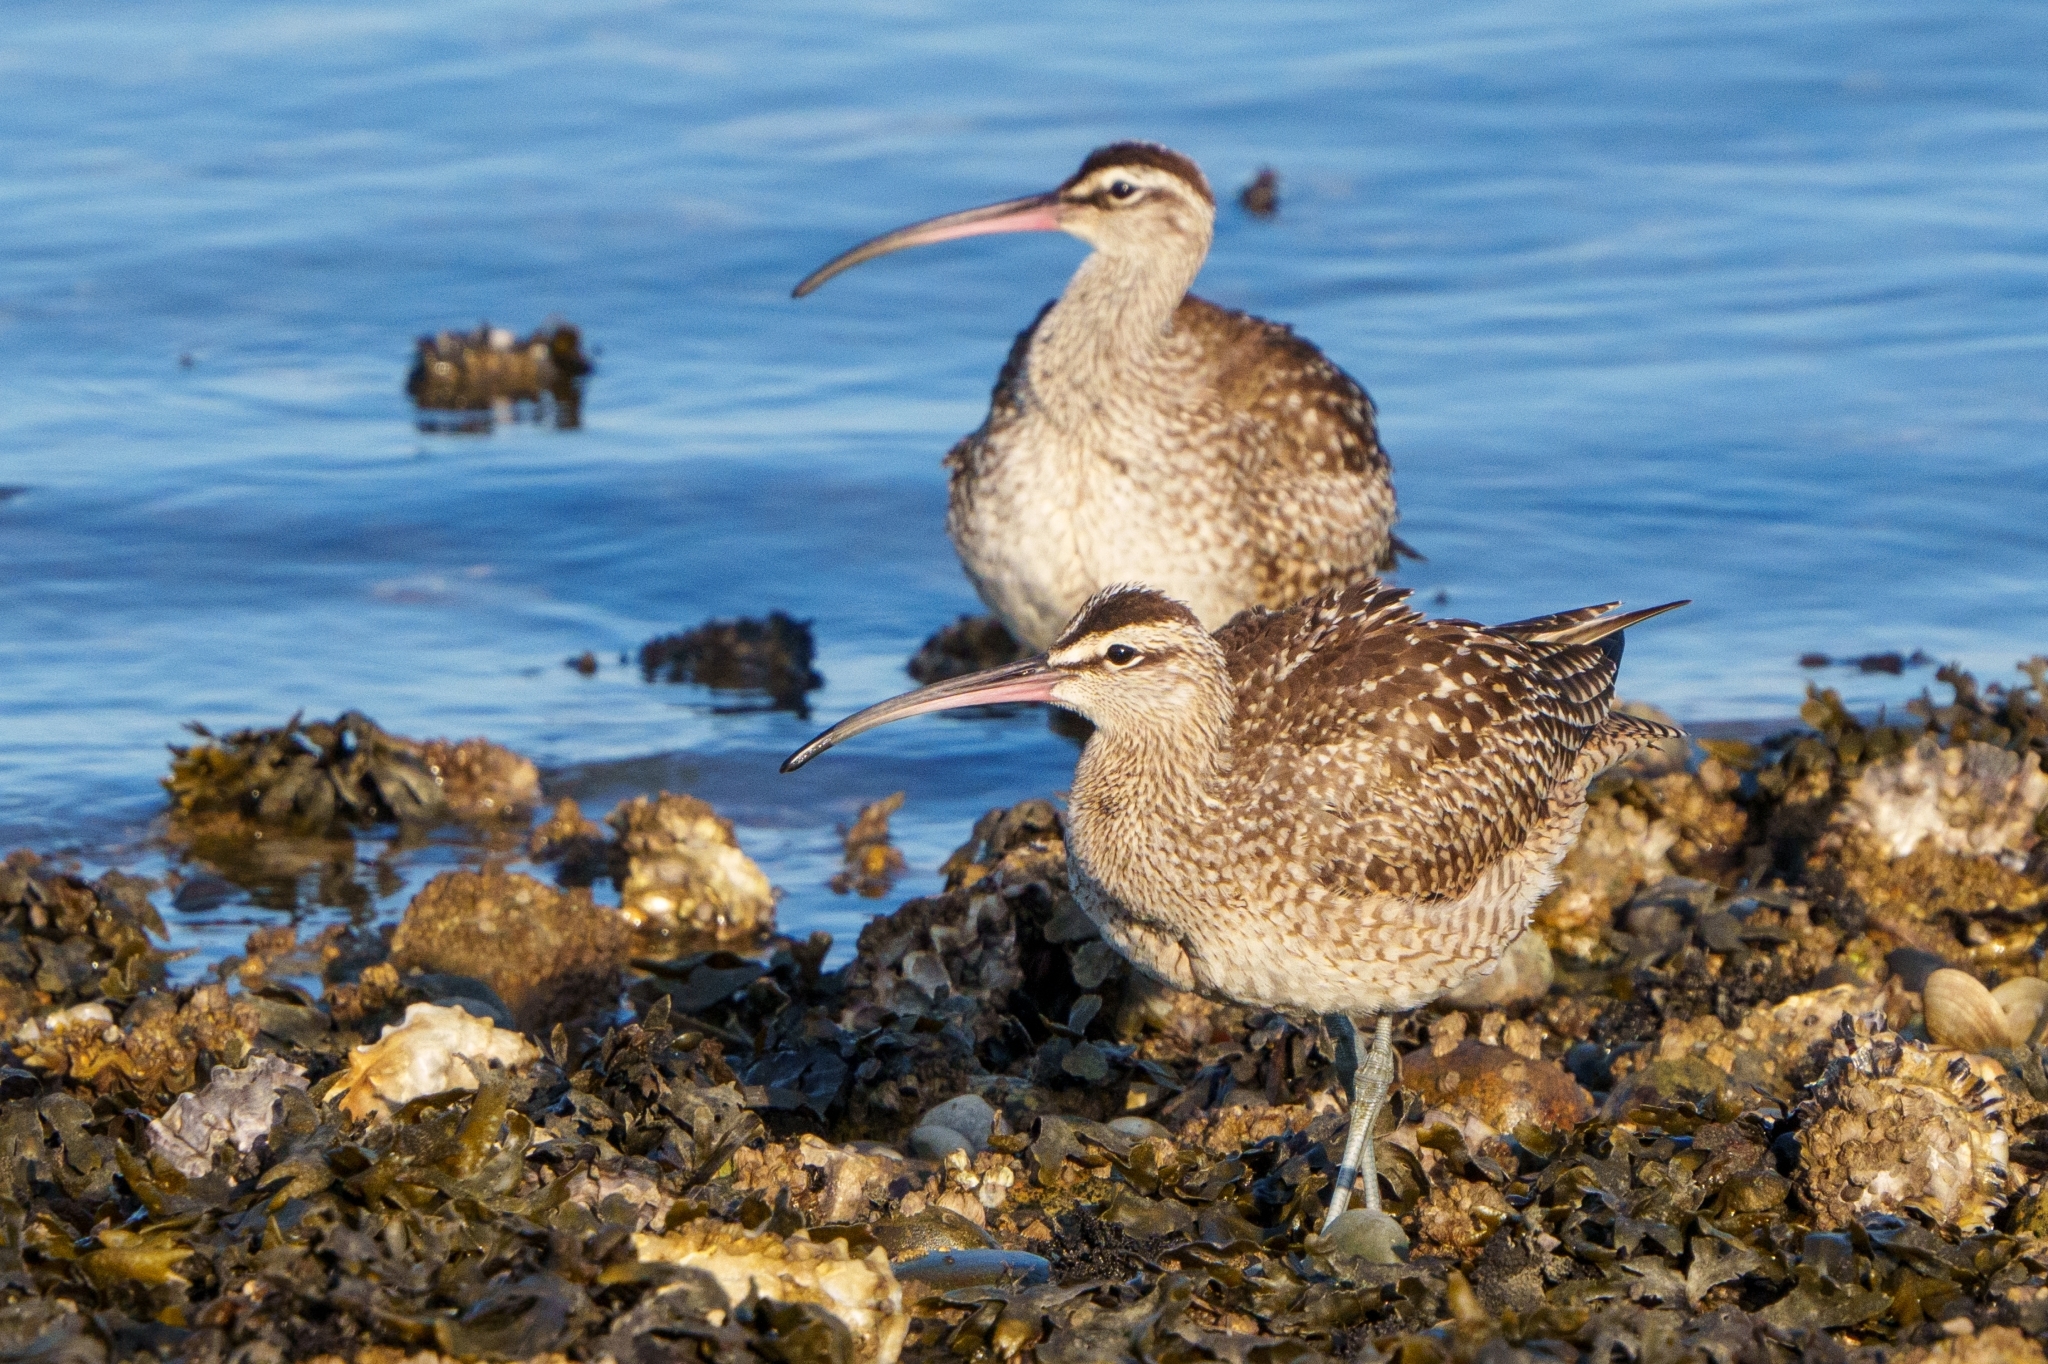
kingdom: Animalia
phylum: Chordata
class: Aves
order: Charadriiformes
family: Scolopacidae
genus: Numenius
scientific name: Numenius phaeopus
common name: Whimbrel
